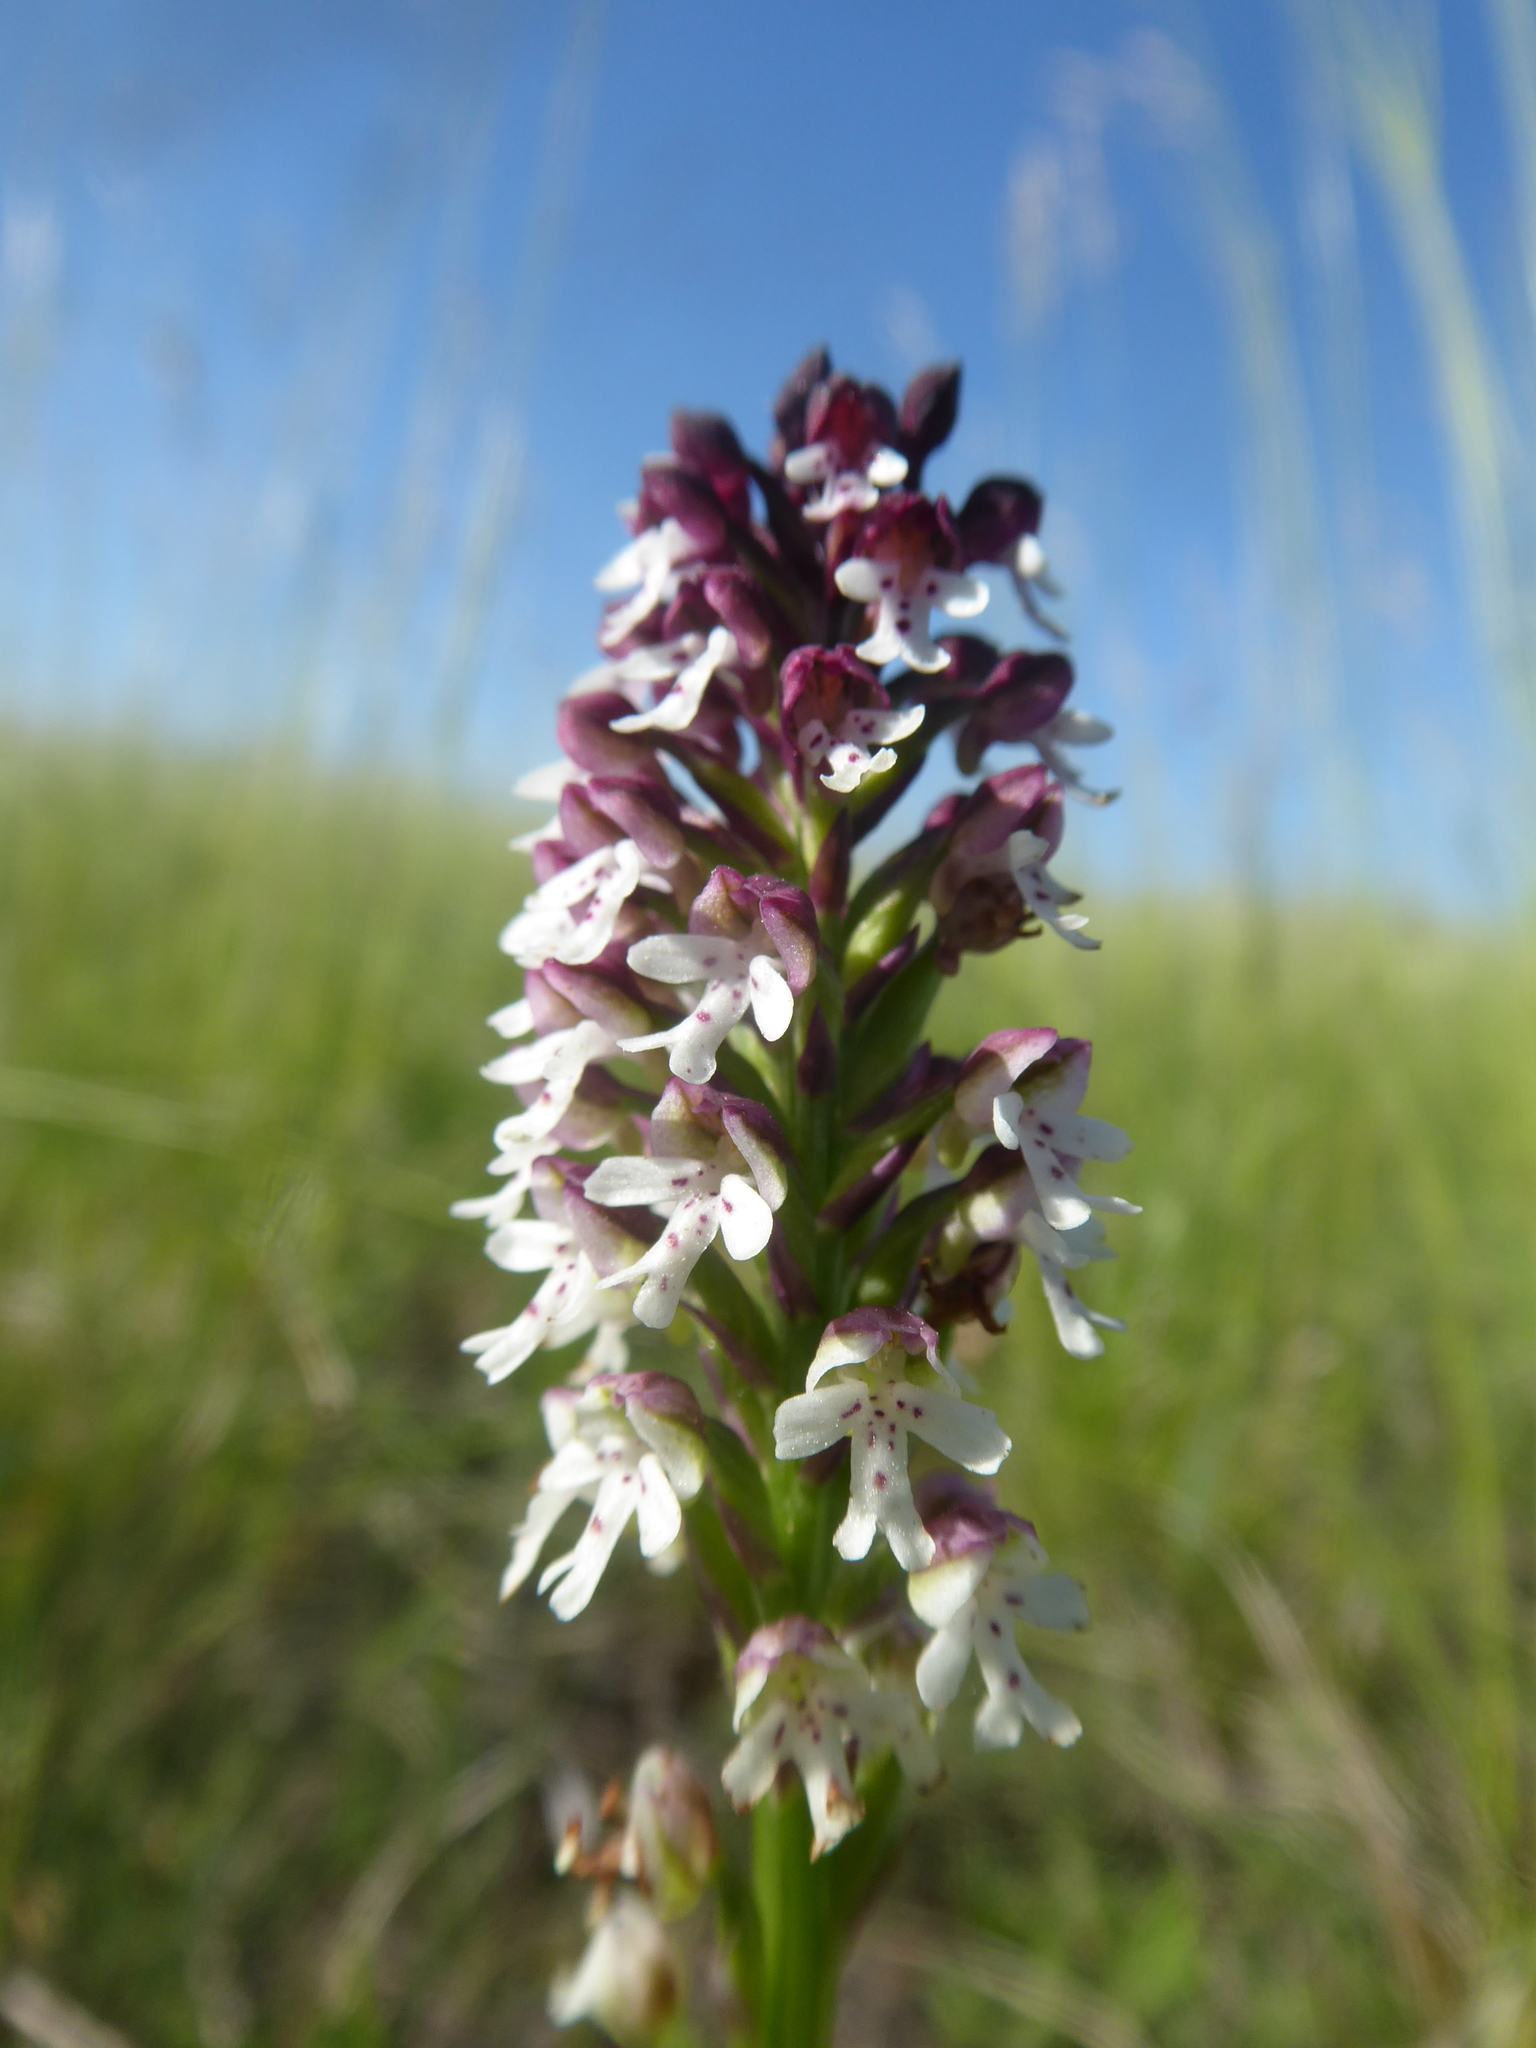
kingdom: Plantae
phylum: Tracheophyta
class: Liliopsida
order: Asparagales
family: Orchidaceae
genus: Neotinea
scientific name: Neotinea ustulata
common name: Burnt orchid
